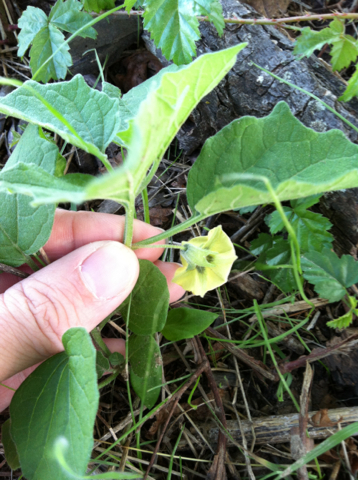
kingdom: Plantae
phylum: Tracheophyta
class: Magnoliopsida
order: Solanales
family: Solanaceae
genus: Physalis
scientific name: Physalis cinerascens
